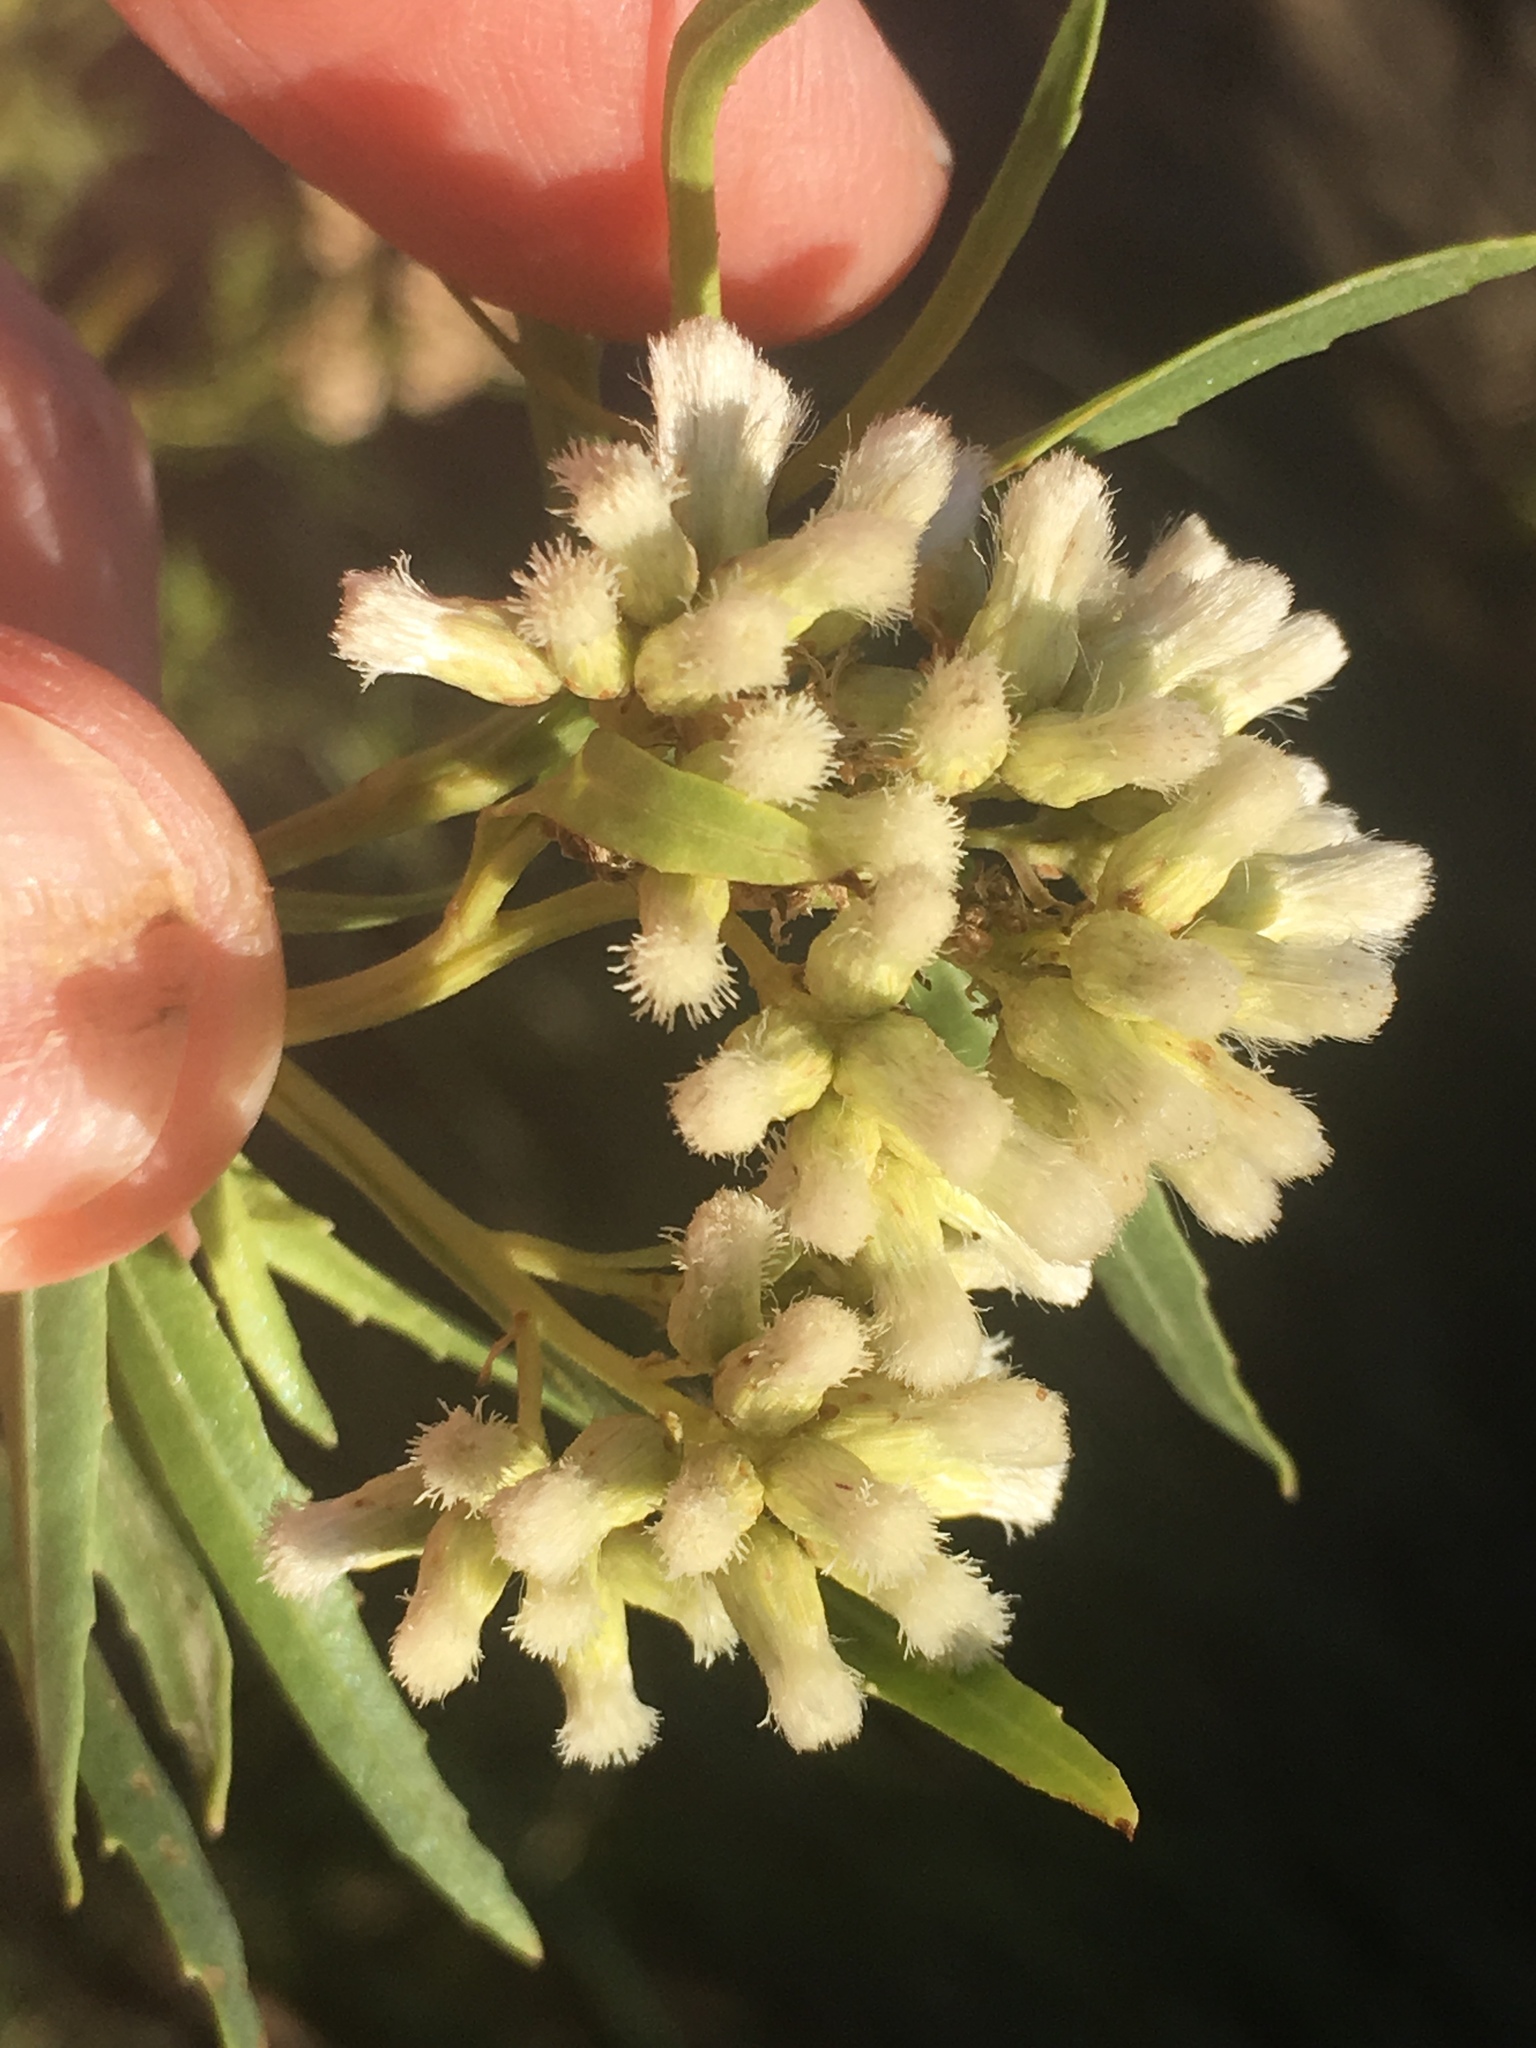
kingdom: Plantae
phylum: Tracheophyta
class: Magnoliopsida
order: Asterales
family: Asteraceae
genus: Baccharis
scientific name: Baccharis salicifolia
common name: Sticky baccharis
